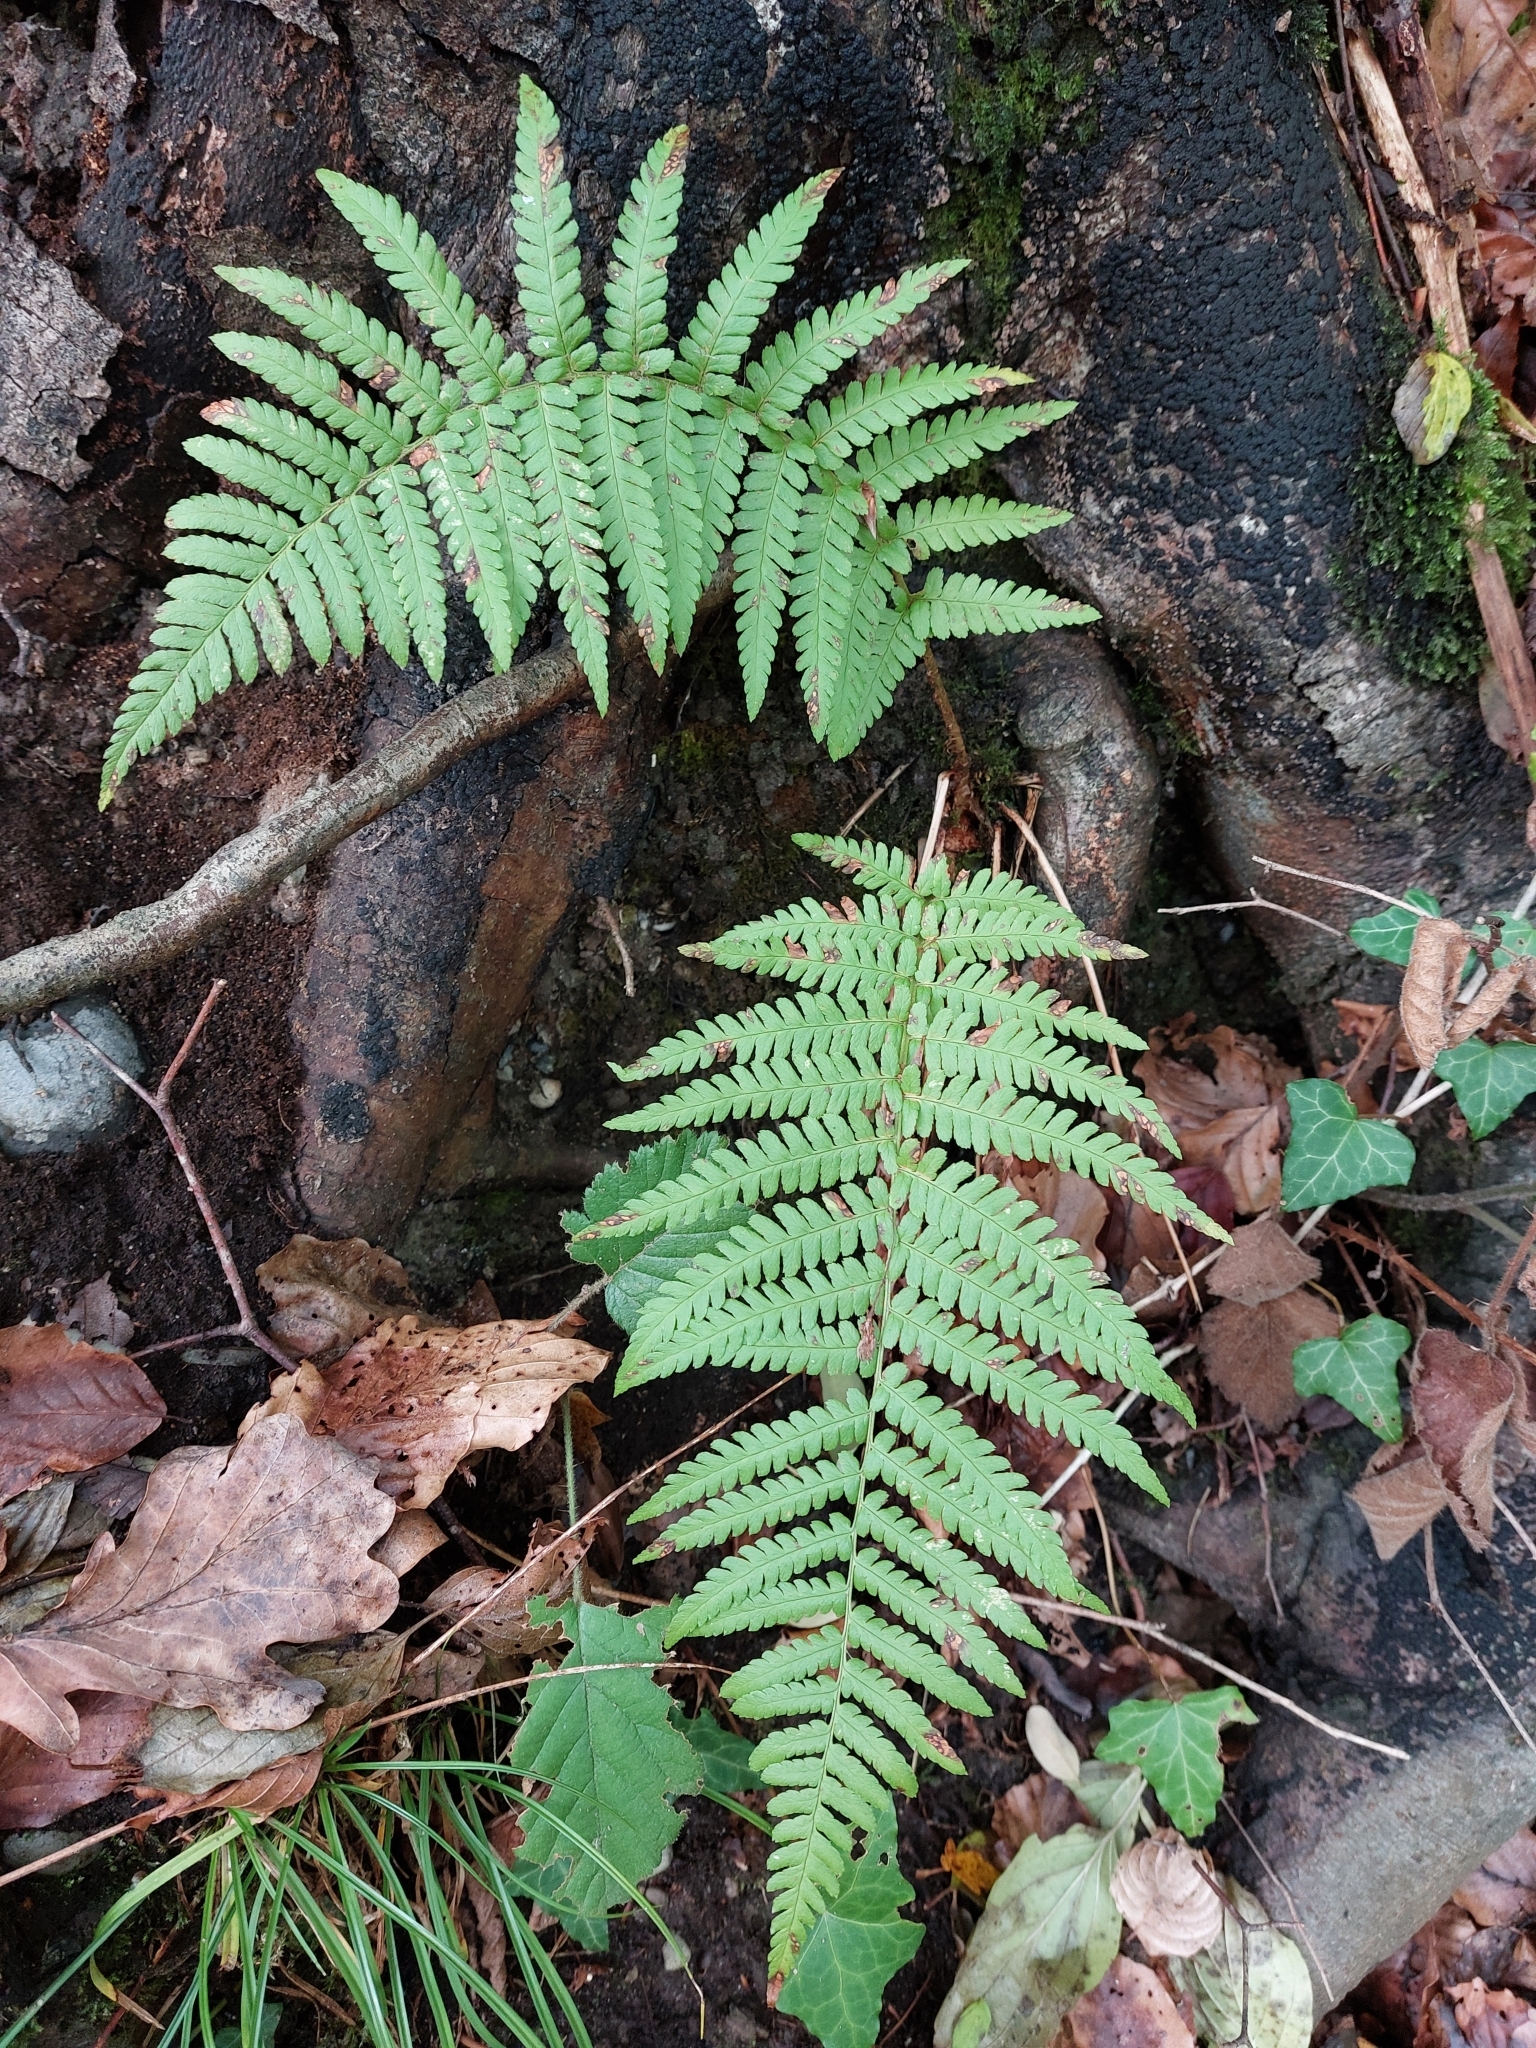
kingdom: Plantae
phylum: Tracheophyta
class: Polypodiopsida
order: Polypodiales
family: Dryopteridaceae
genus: Dryopteris
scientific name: Dryopteris filix-mas
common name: Male fern
